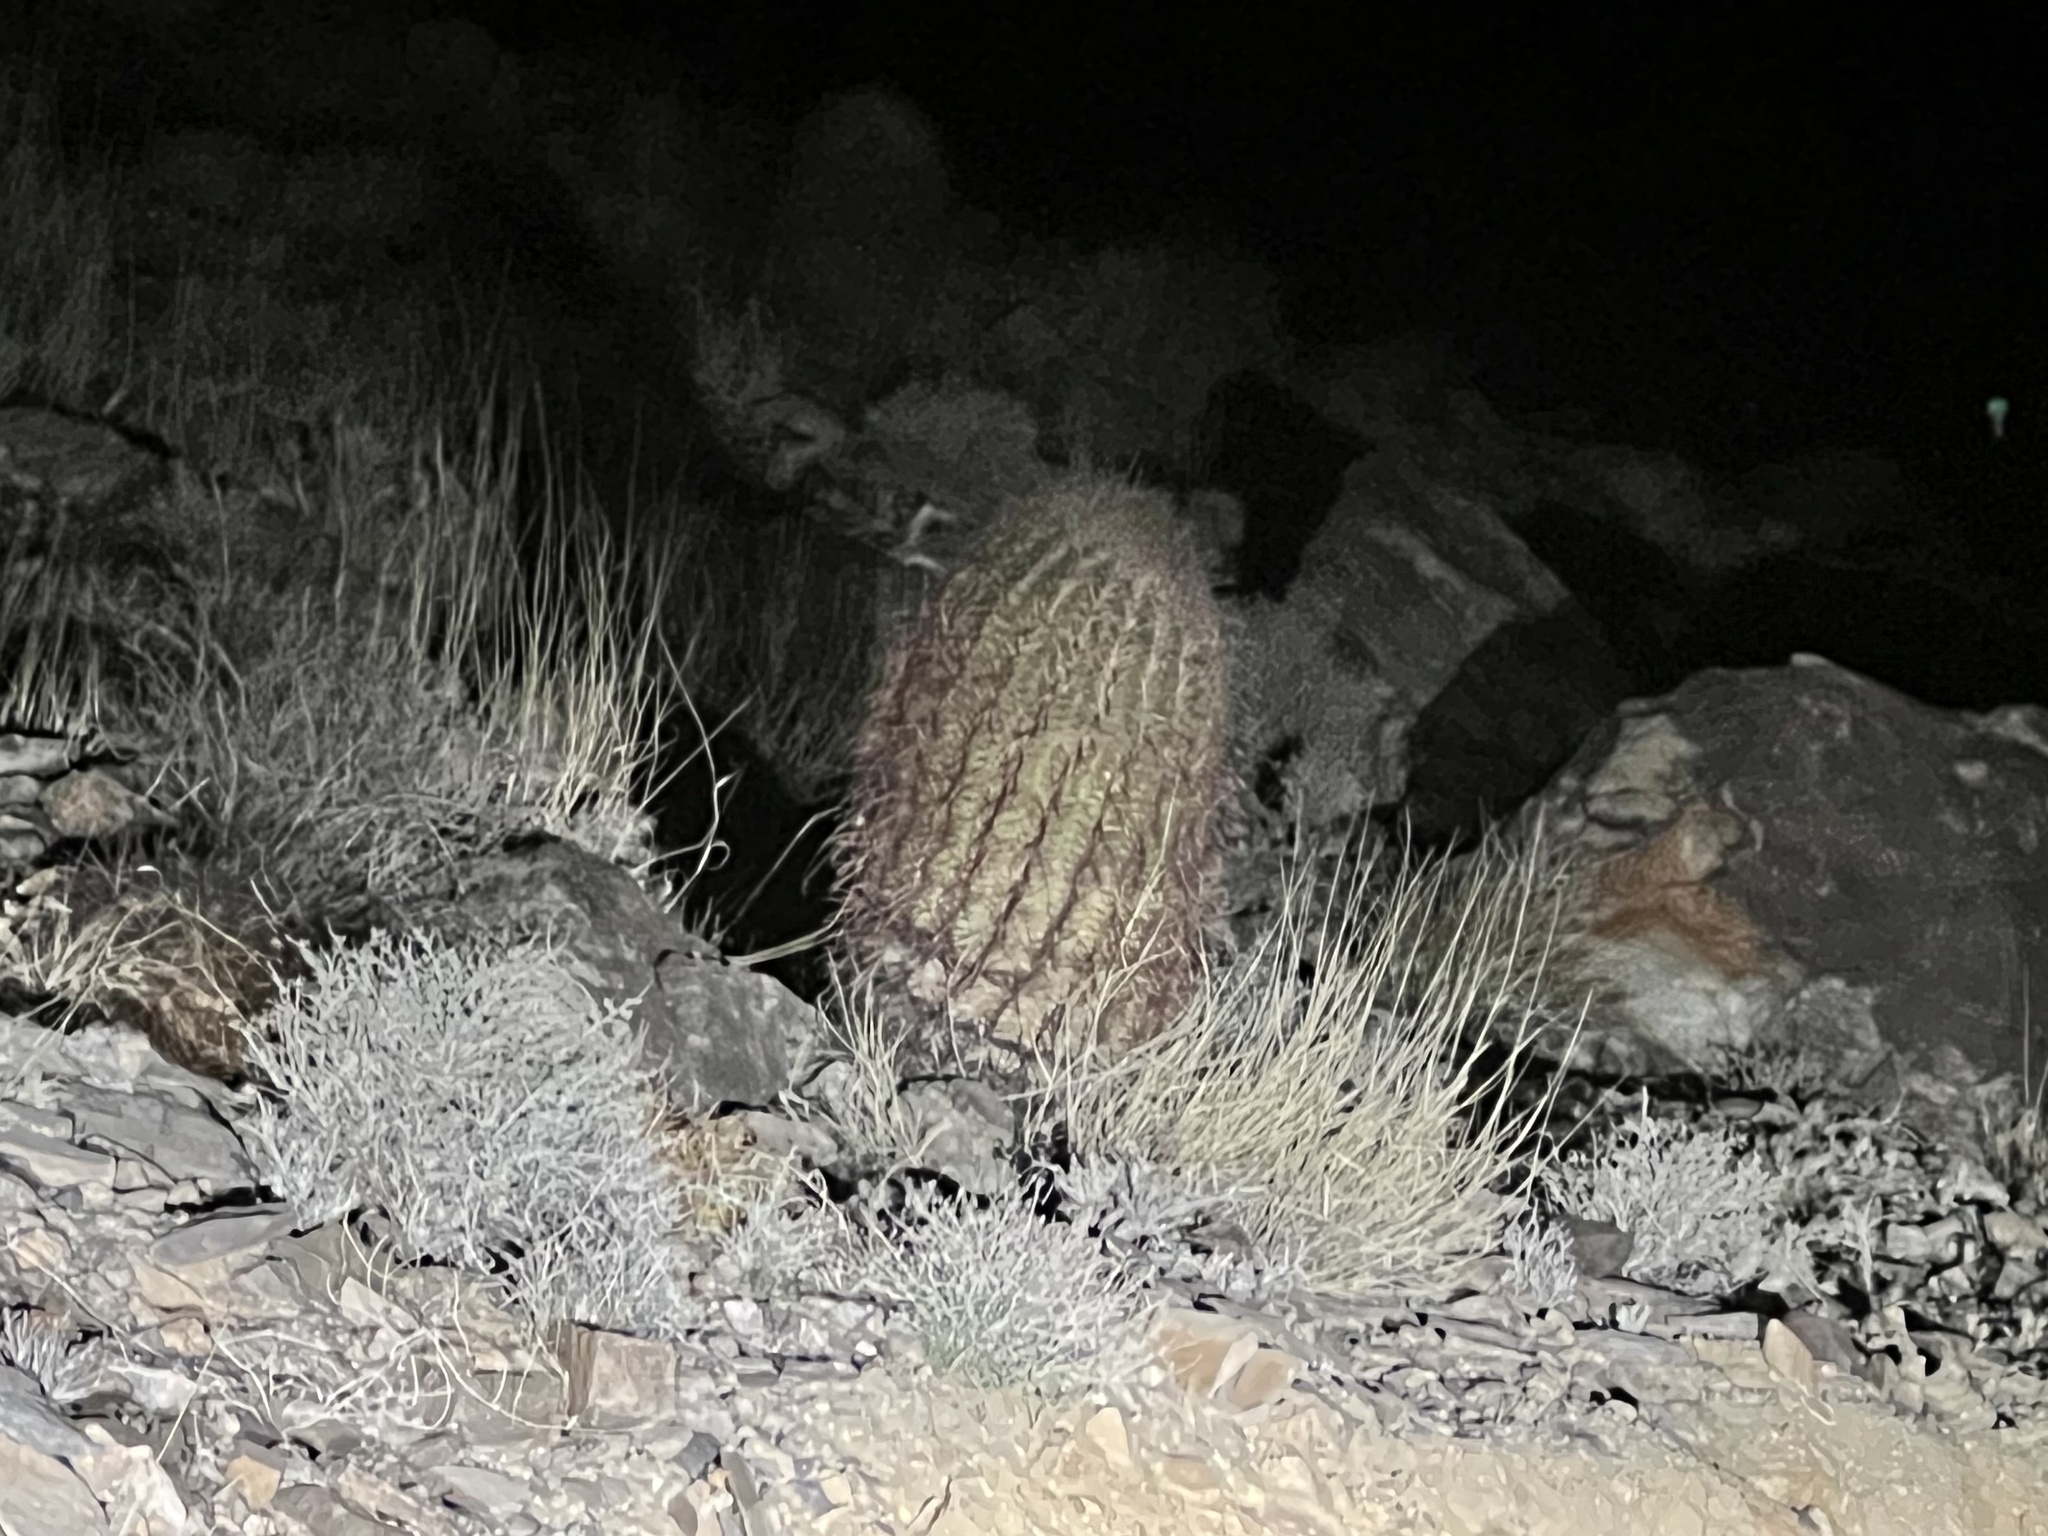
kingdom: Plantae
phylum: Tracheophyta
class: Magnoliopsida
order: Caryophyllales
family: Cactaceae
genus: Ferocactus
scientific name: Ferocactus cylindraceus
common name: California barrel cactus
